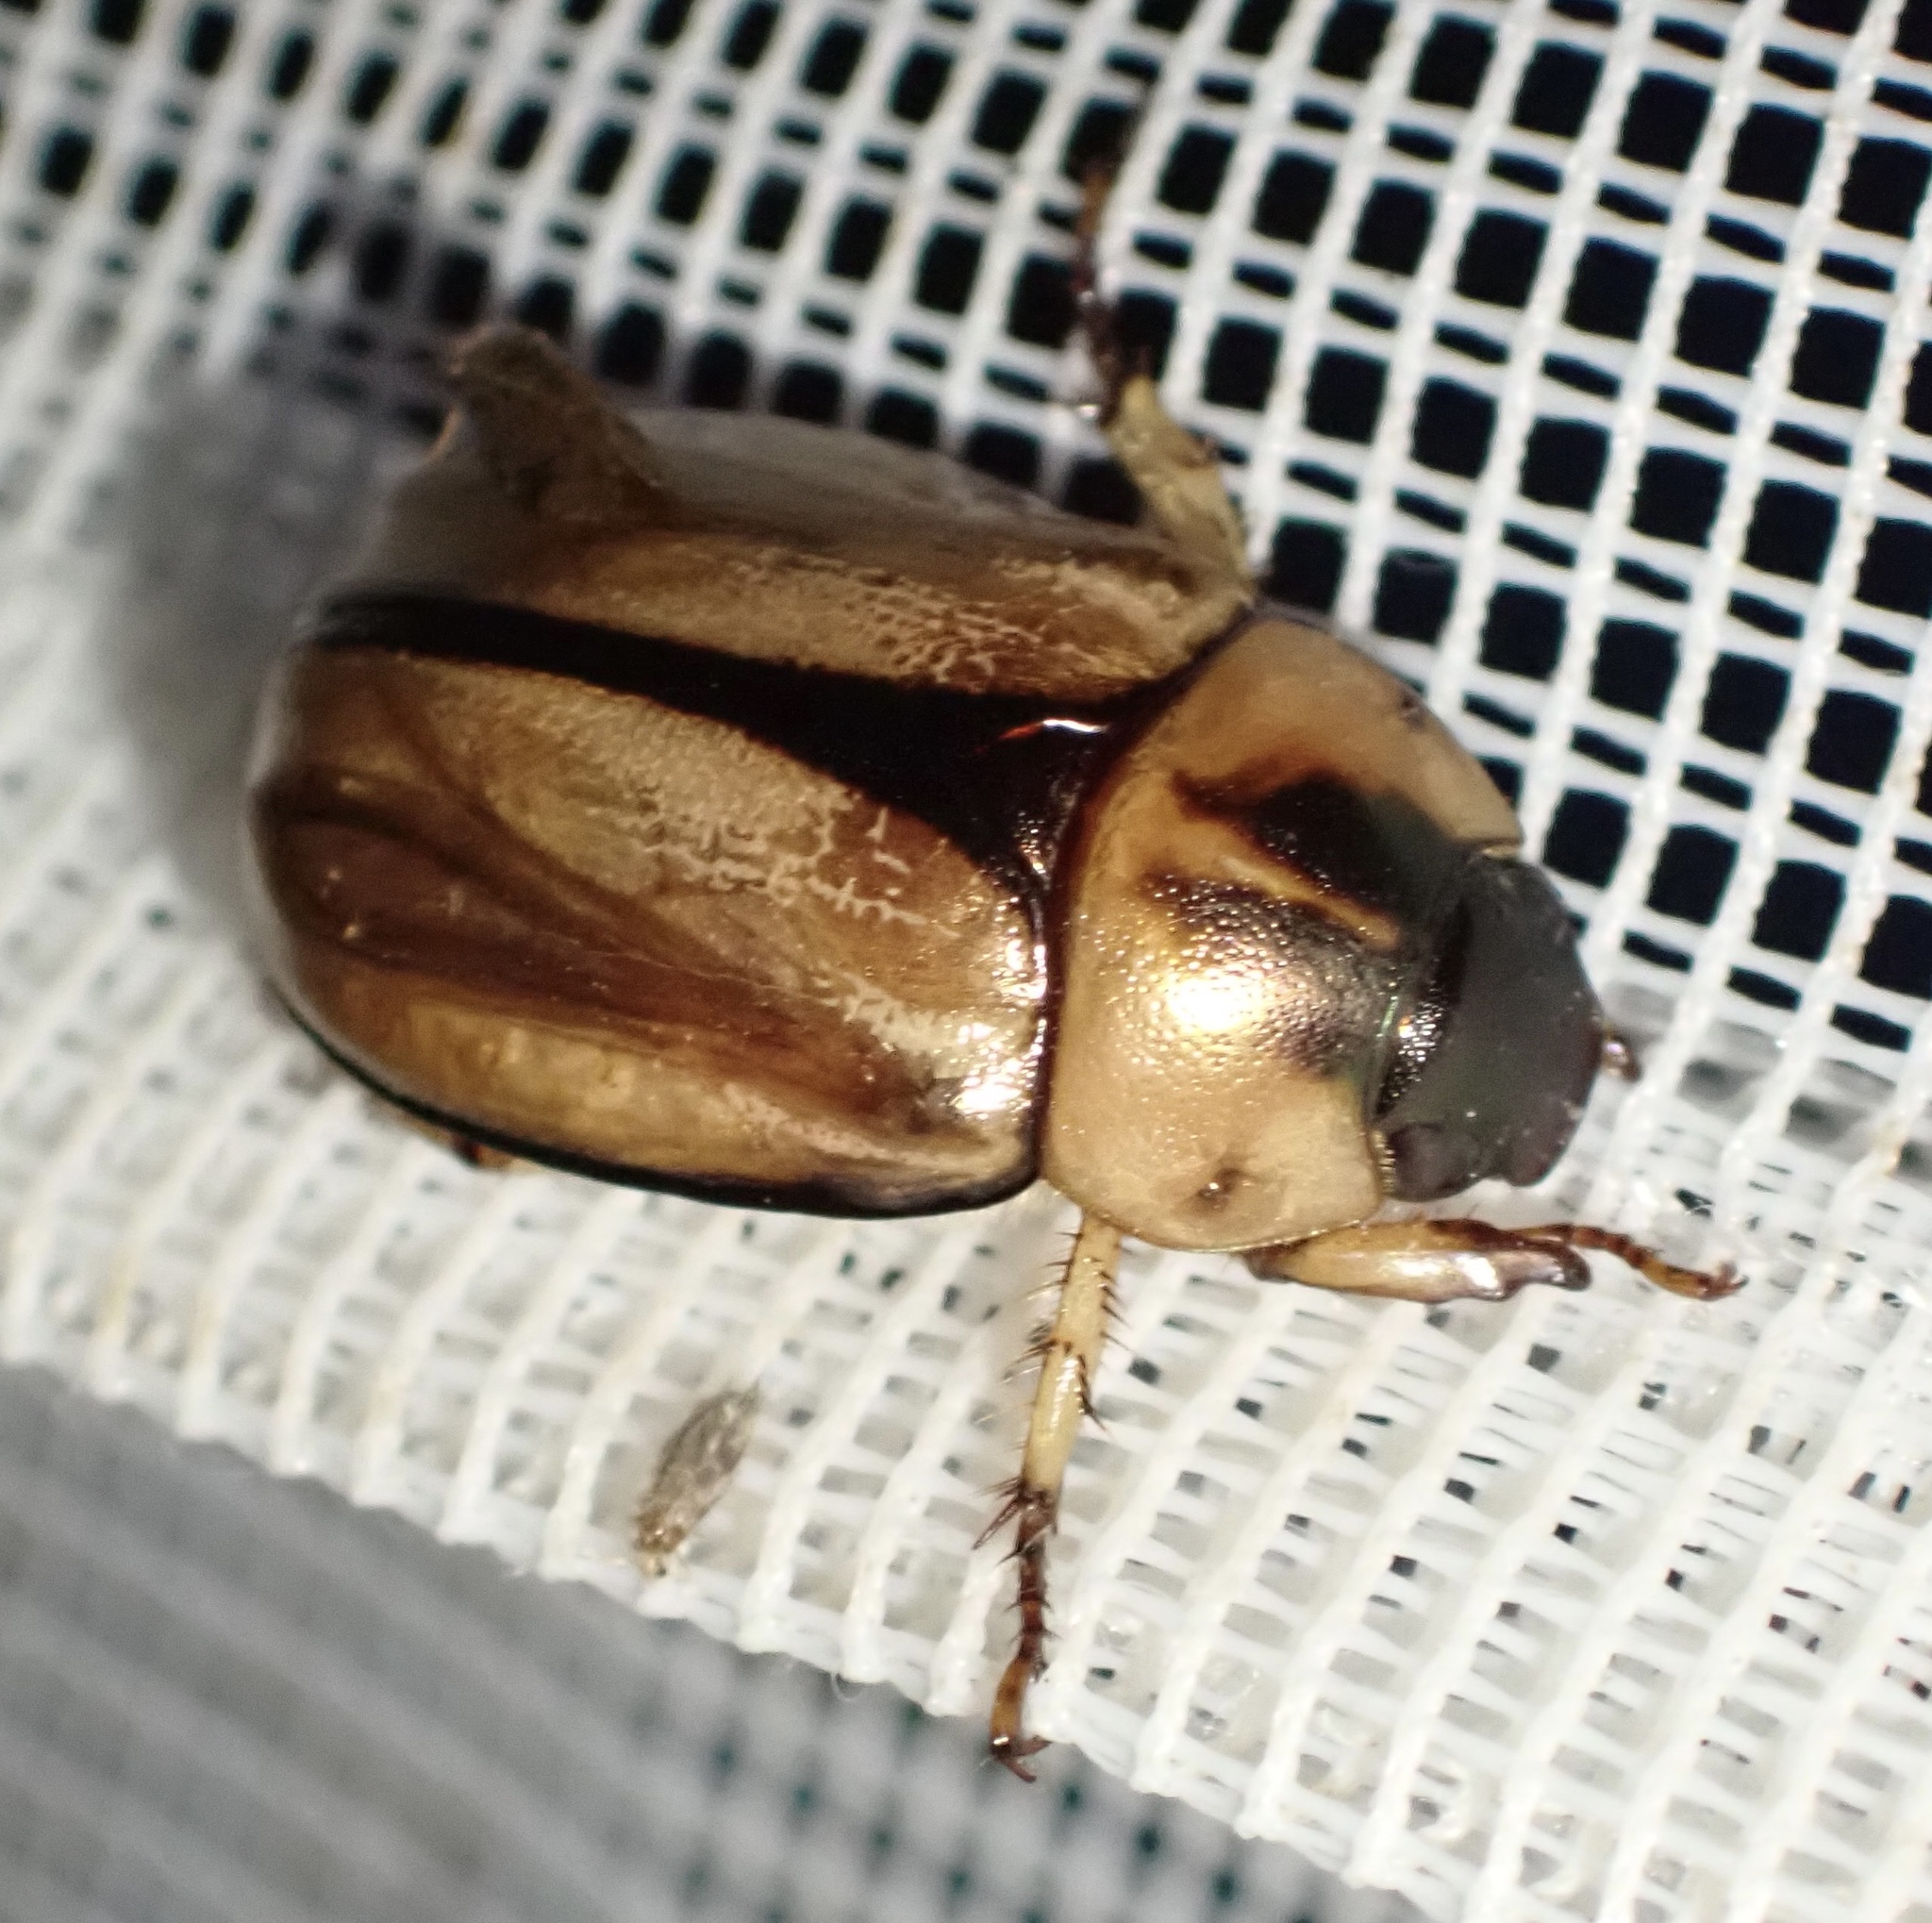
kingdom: Animalia
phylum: Arthropoda
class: Insecta
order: Coleoptera
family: Scarabaeidae
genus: Anomala
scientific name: Anomala celebica
